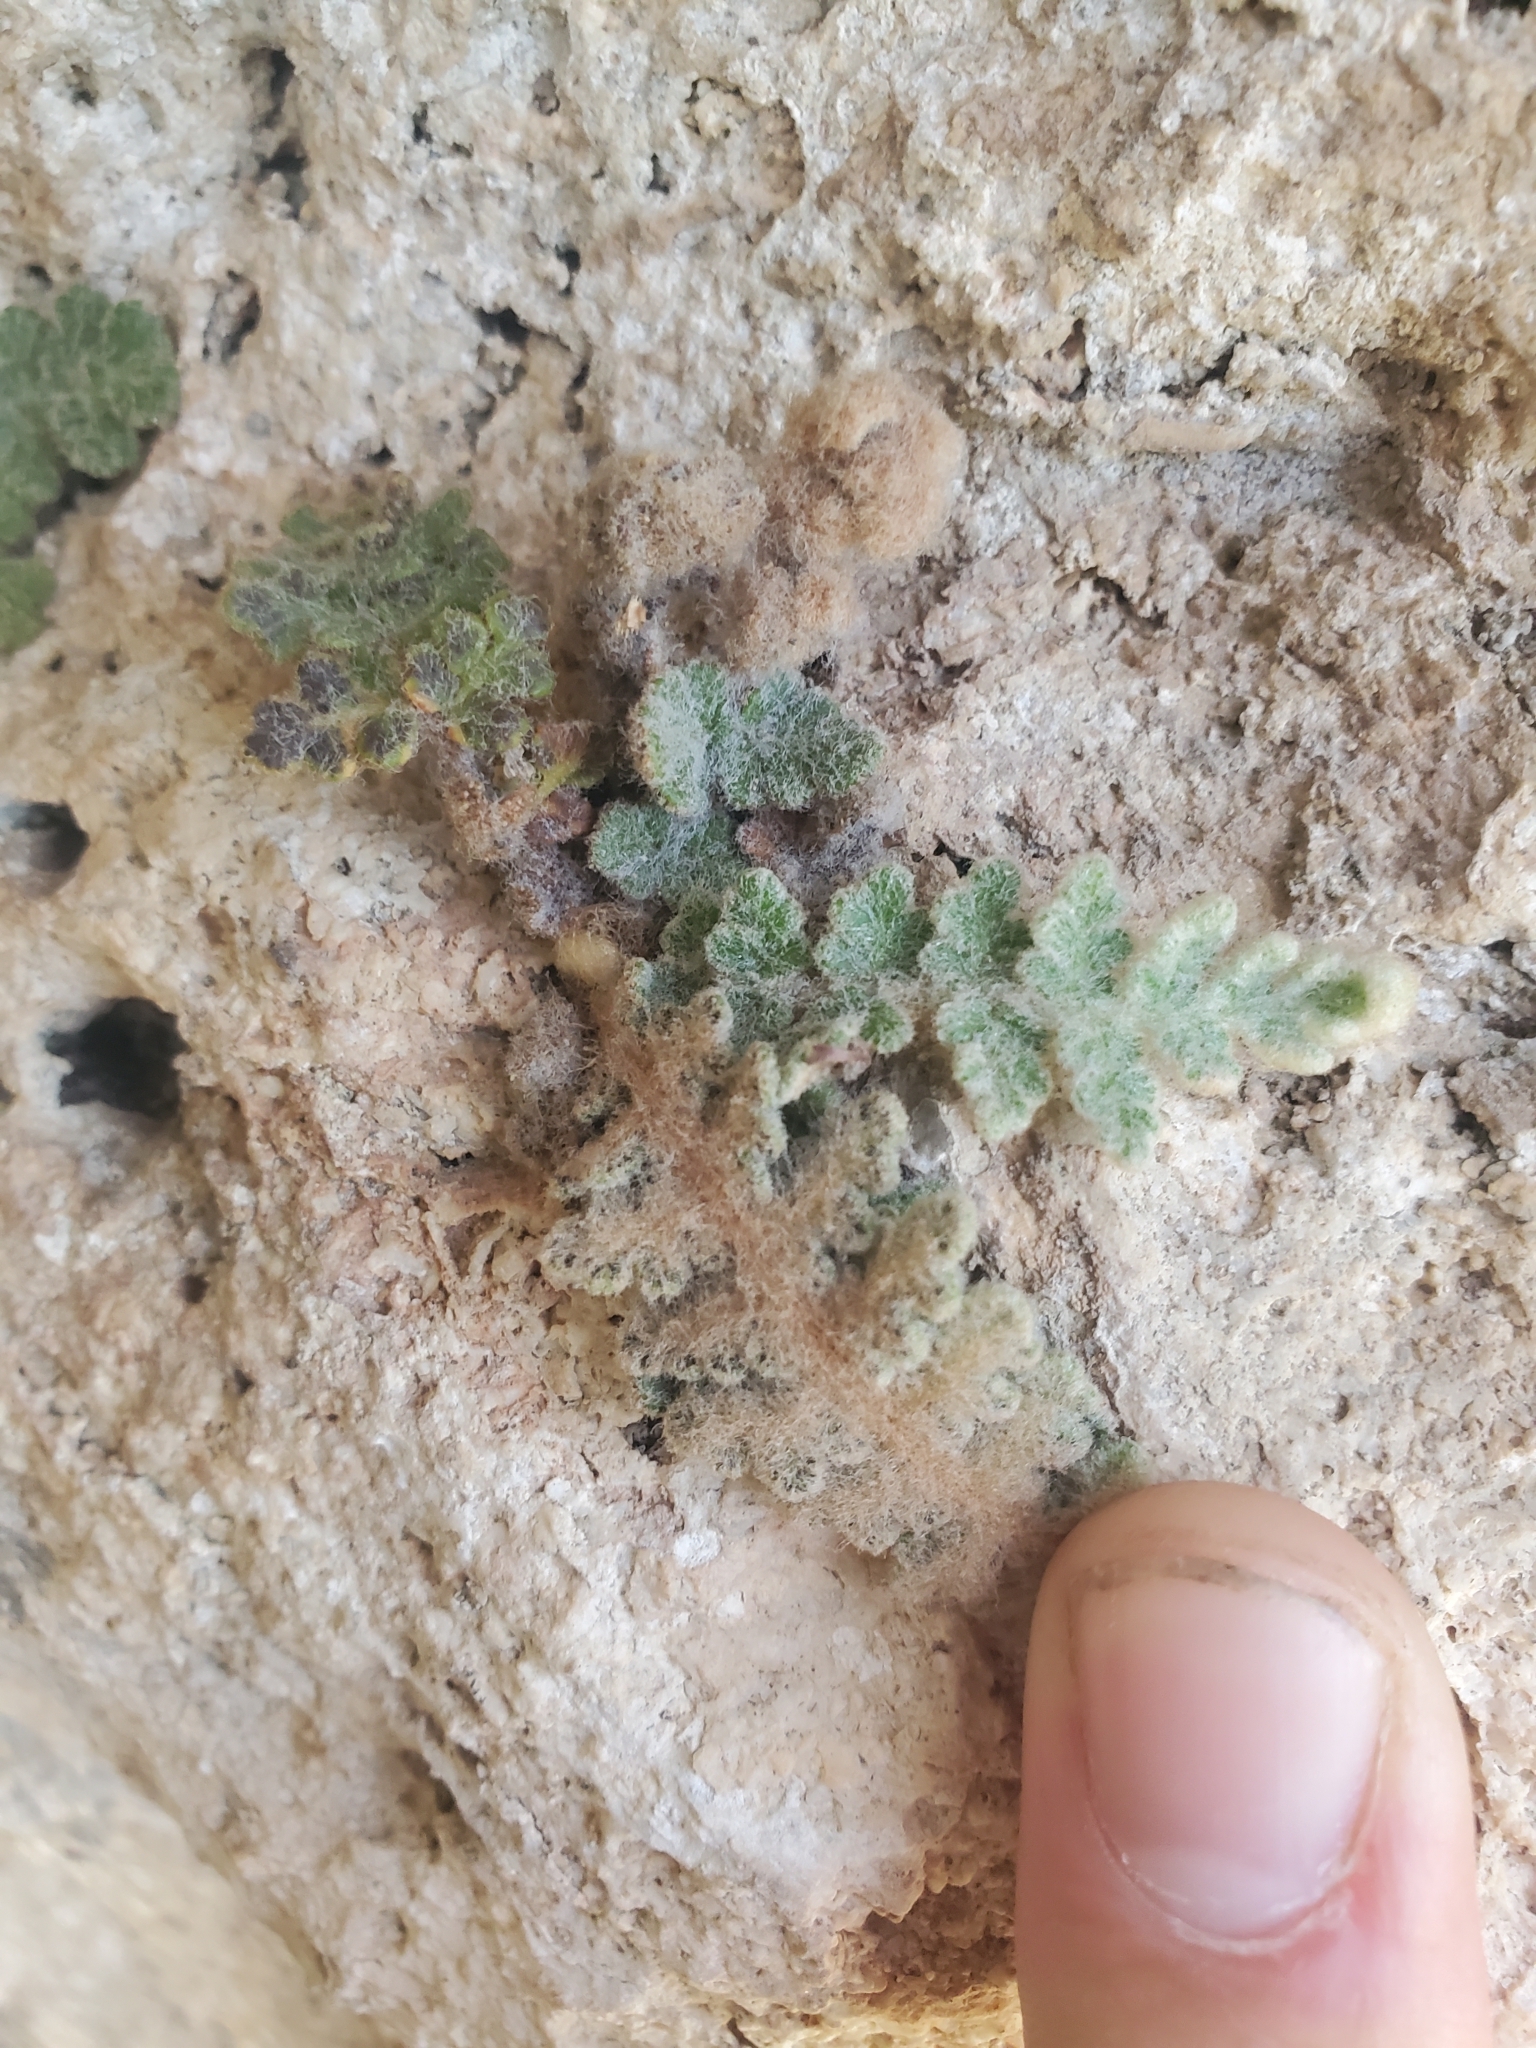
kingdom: Plantae
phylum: Tracheophyta
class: Polypodiopsida
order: Polypodiales
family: Pteridaceae
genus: Cosentinia
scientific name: Cosentinia vellea
